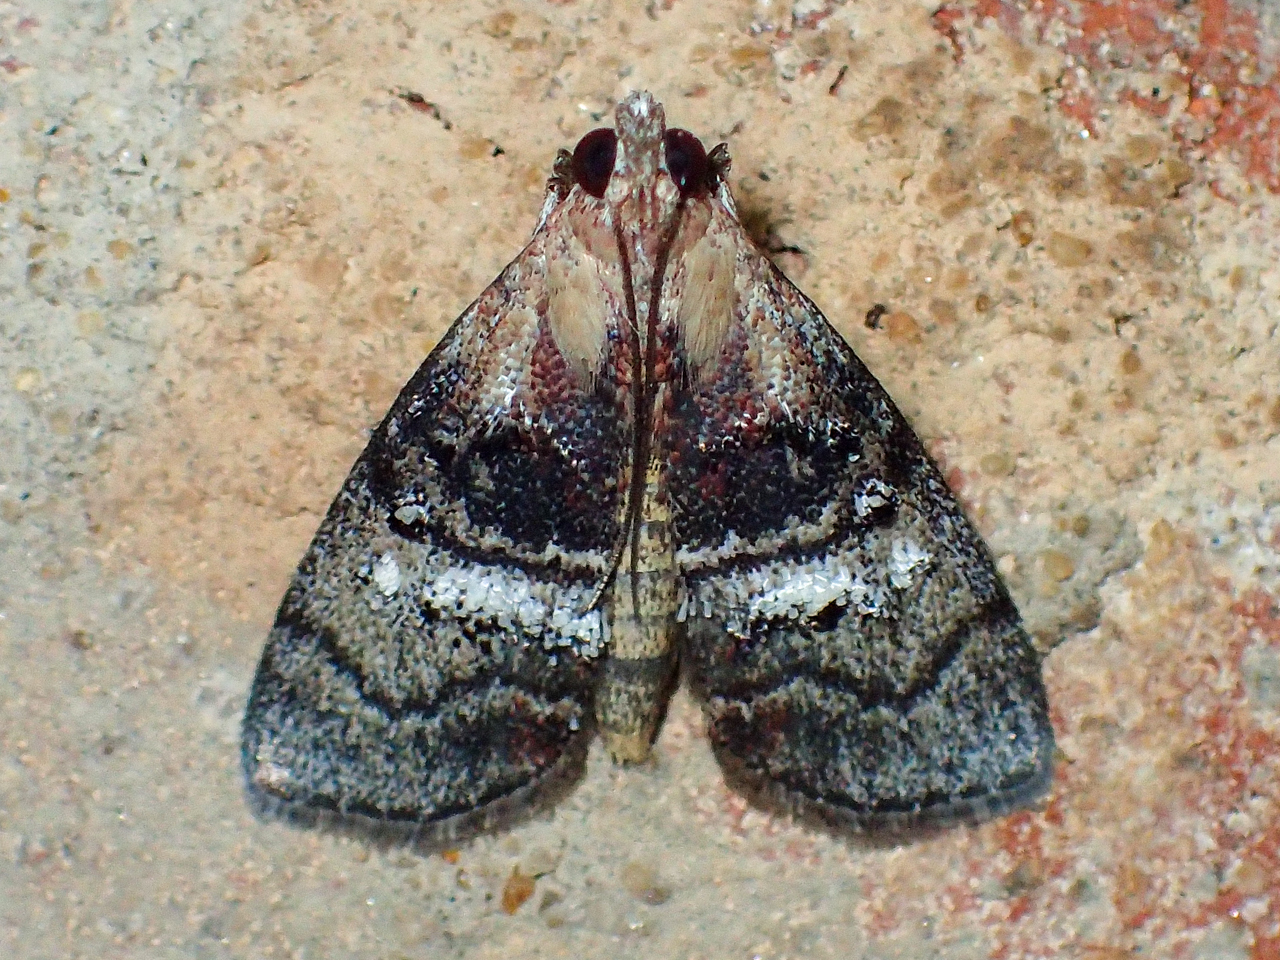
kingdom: Animalia
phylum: Arthropoda
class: Insecta
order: Lepidoptera
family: Pyralidae
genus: Pococera
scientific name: Pococera expandens
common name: Striped oak webworm moth
